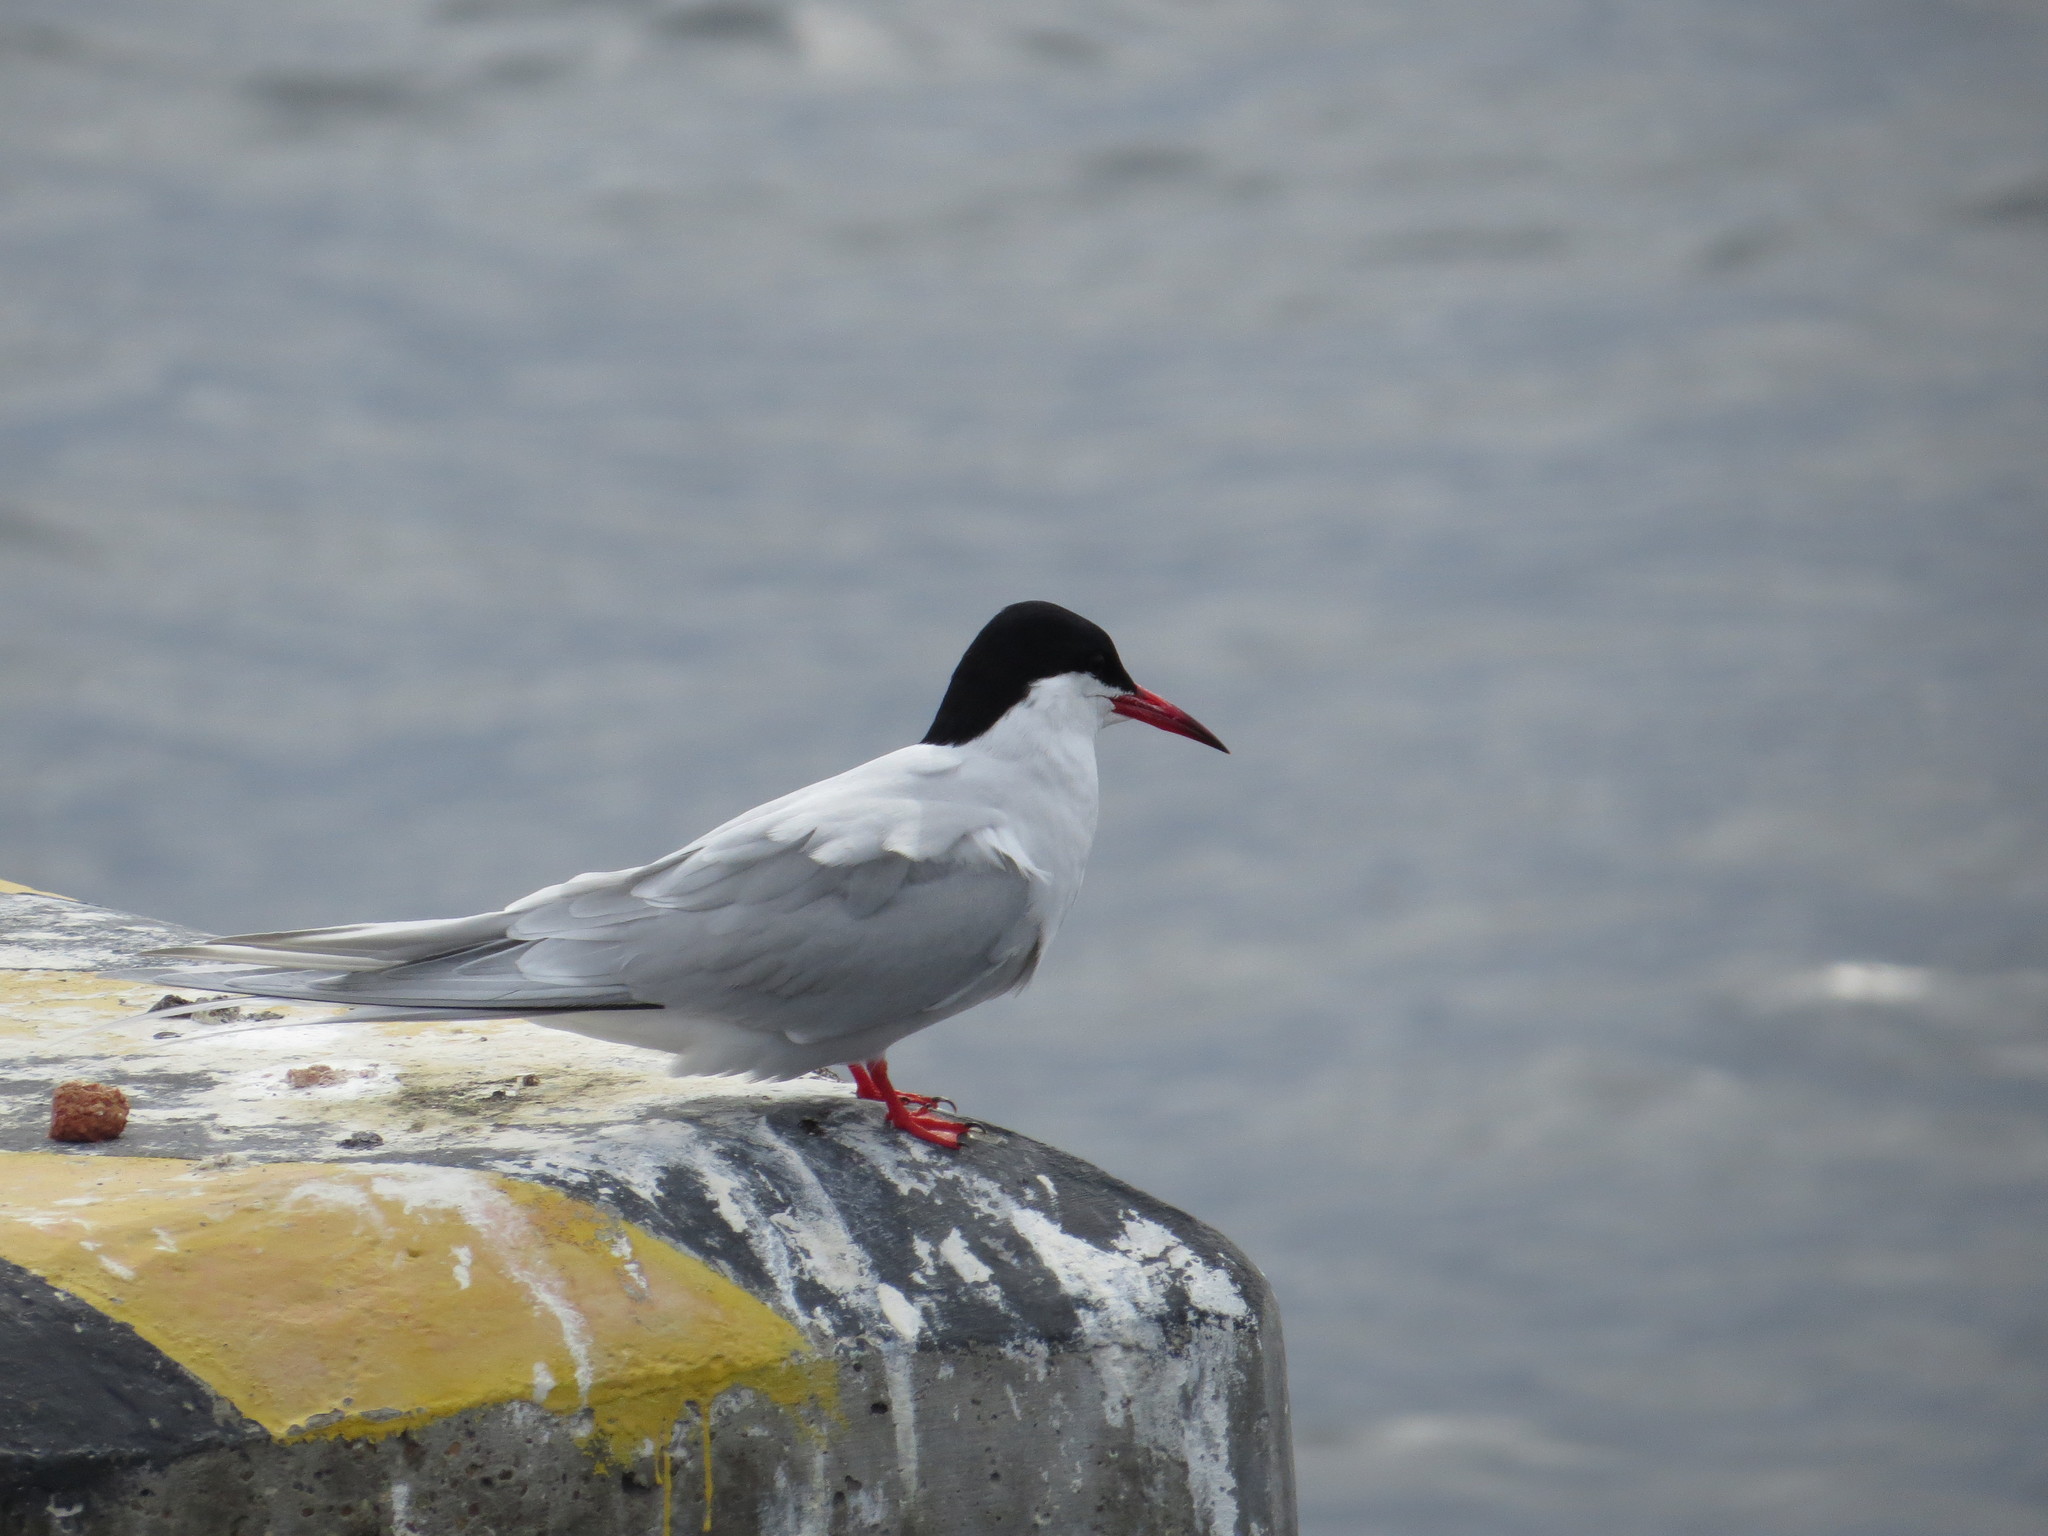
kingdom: Animalia
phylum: Chordata
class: Aves
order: Charadriiformes
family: Laridae
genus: Sterna
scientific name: Sterna hirundinacea
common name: South american tern
